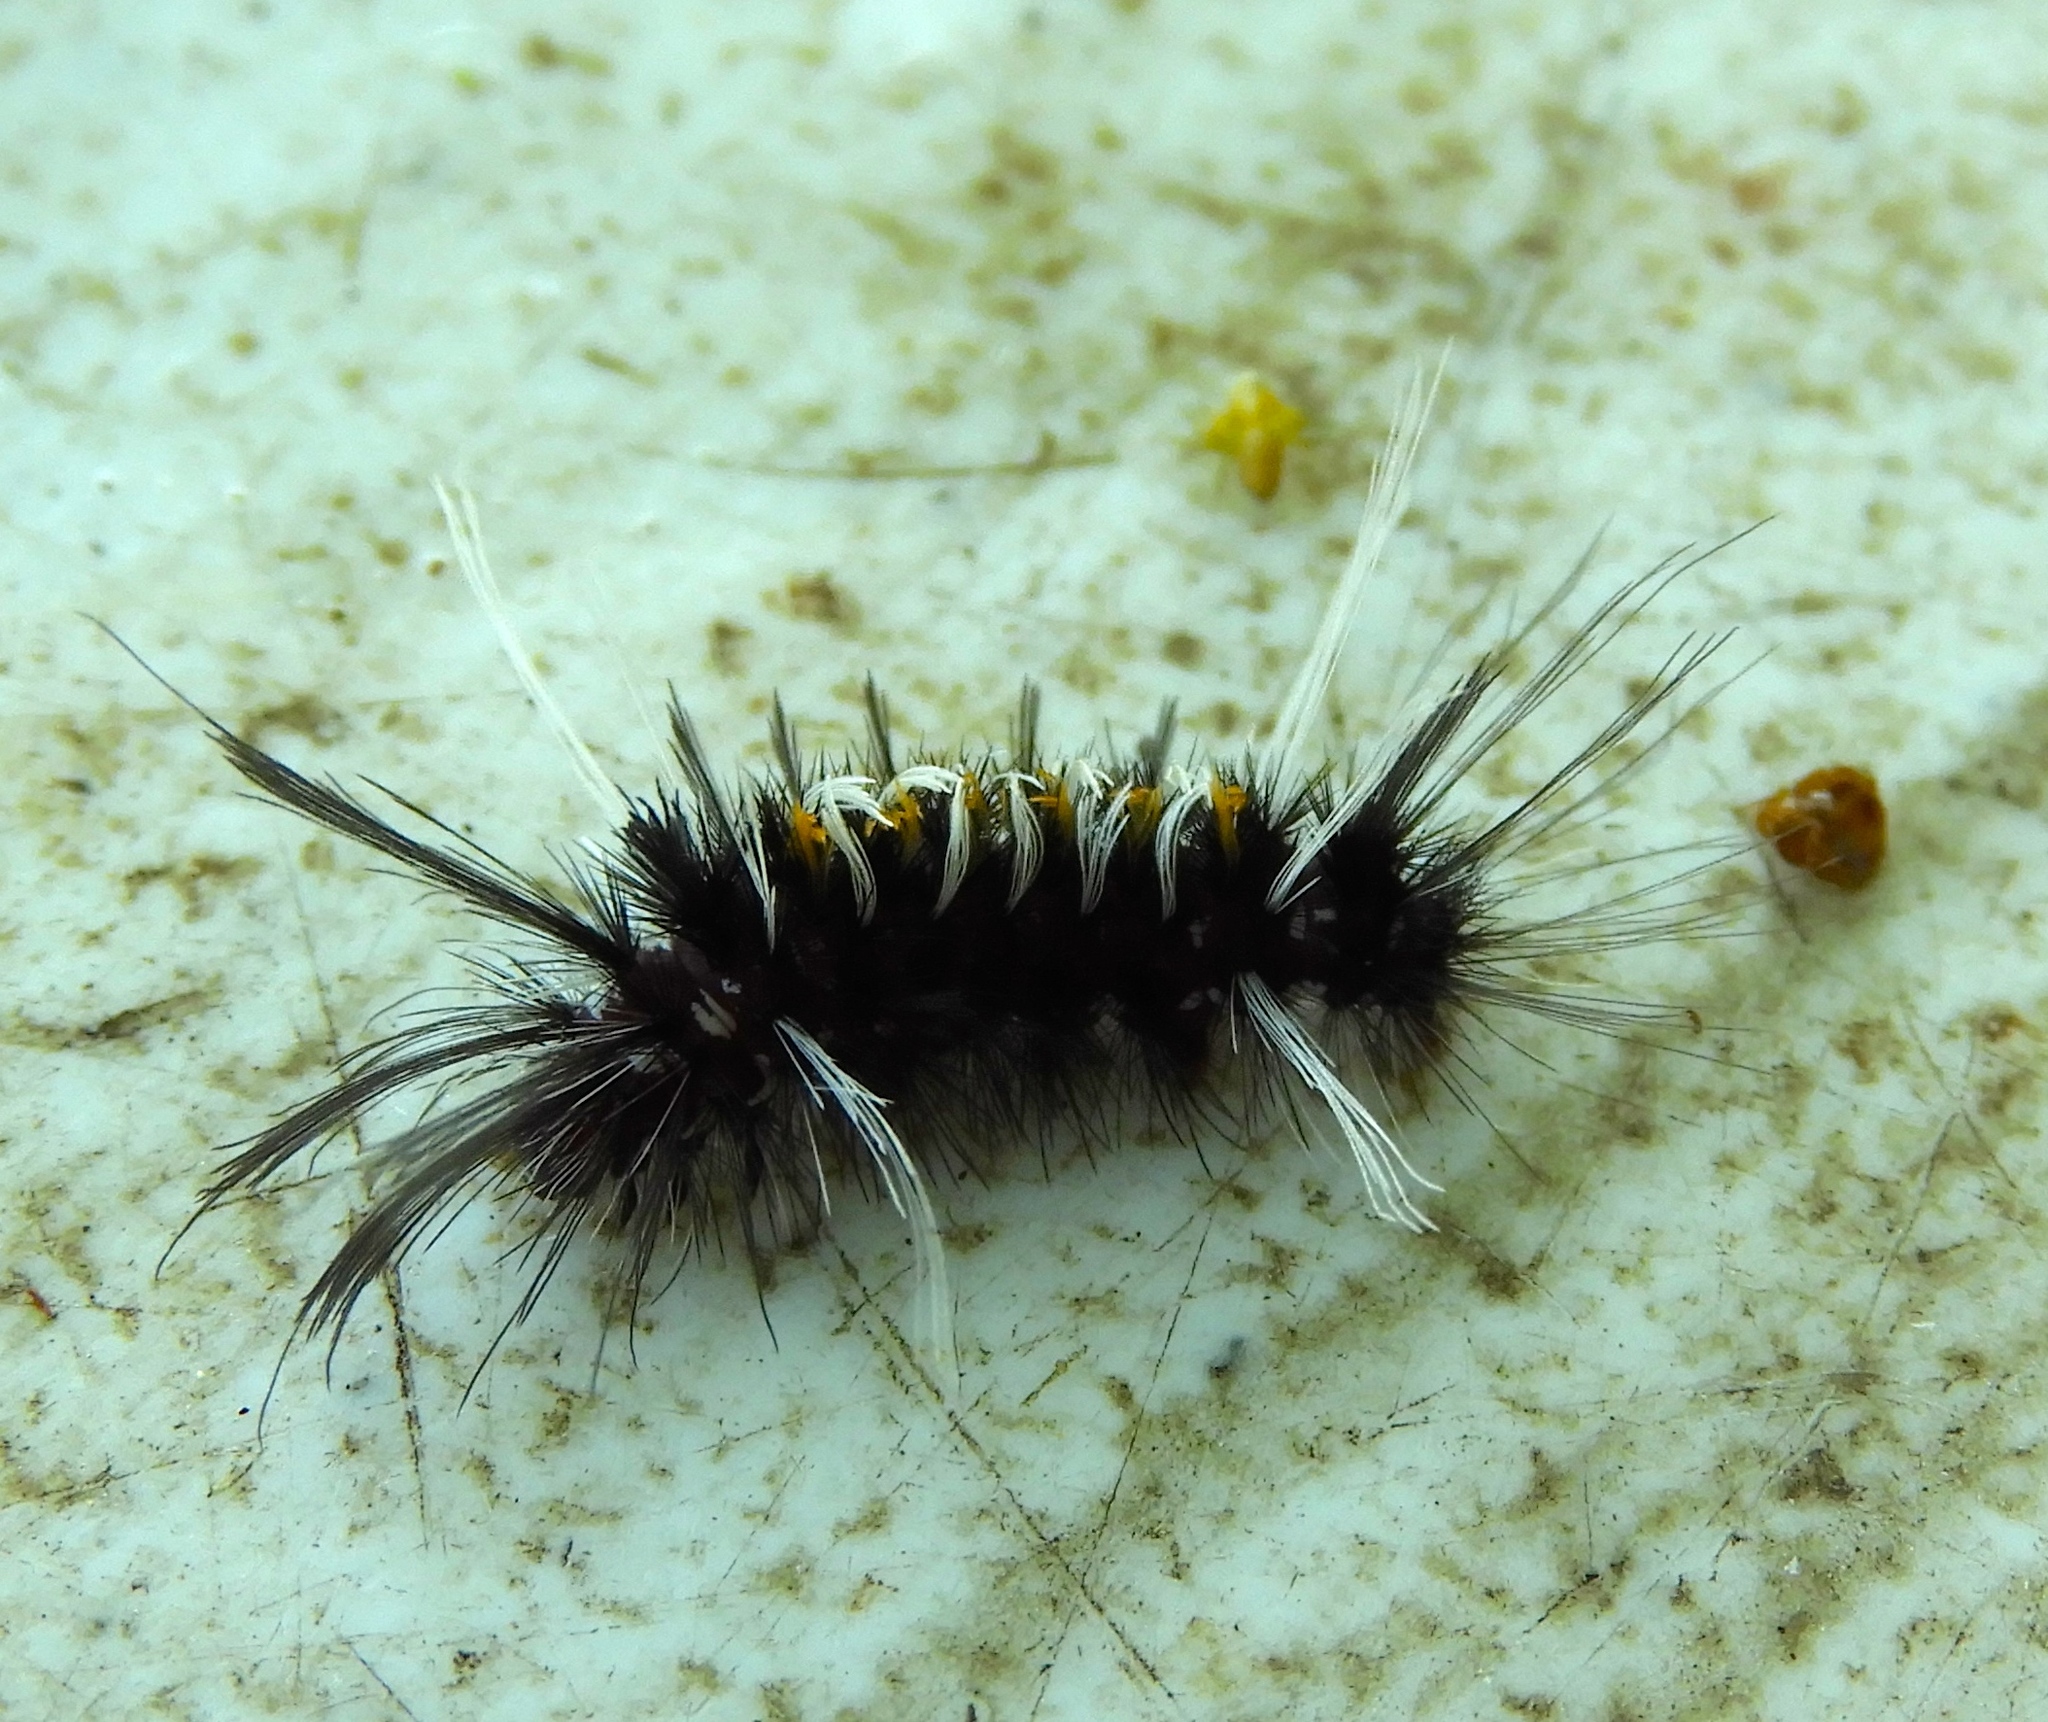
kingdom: Animalia
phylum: Arthropoda
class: Insecta
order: Lepidoptera
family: Erebidae
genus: Euchaetes
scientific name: Euchaetes
